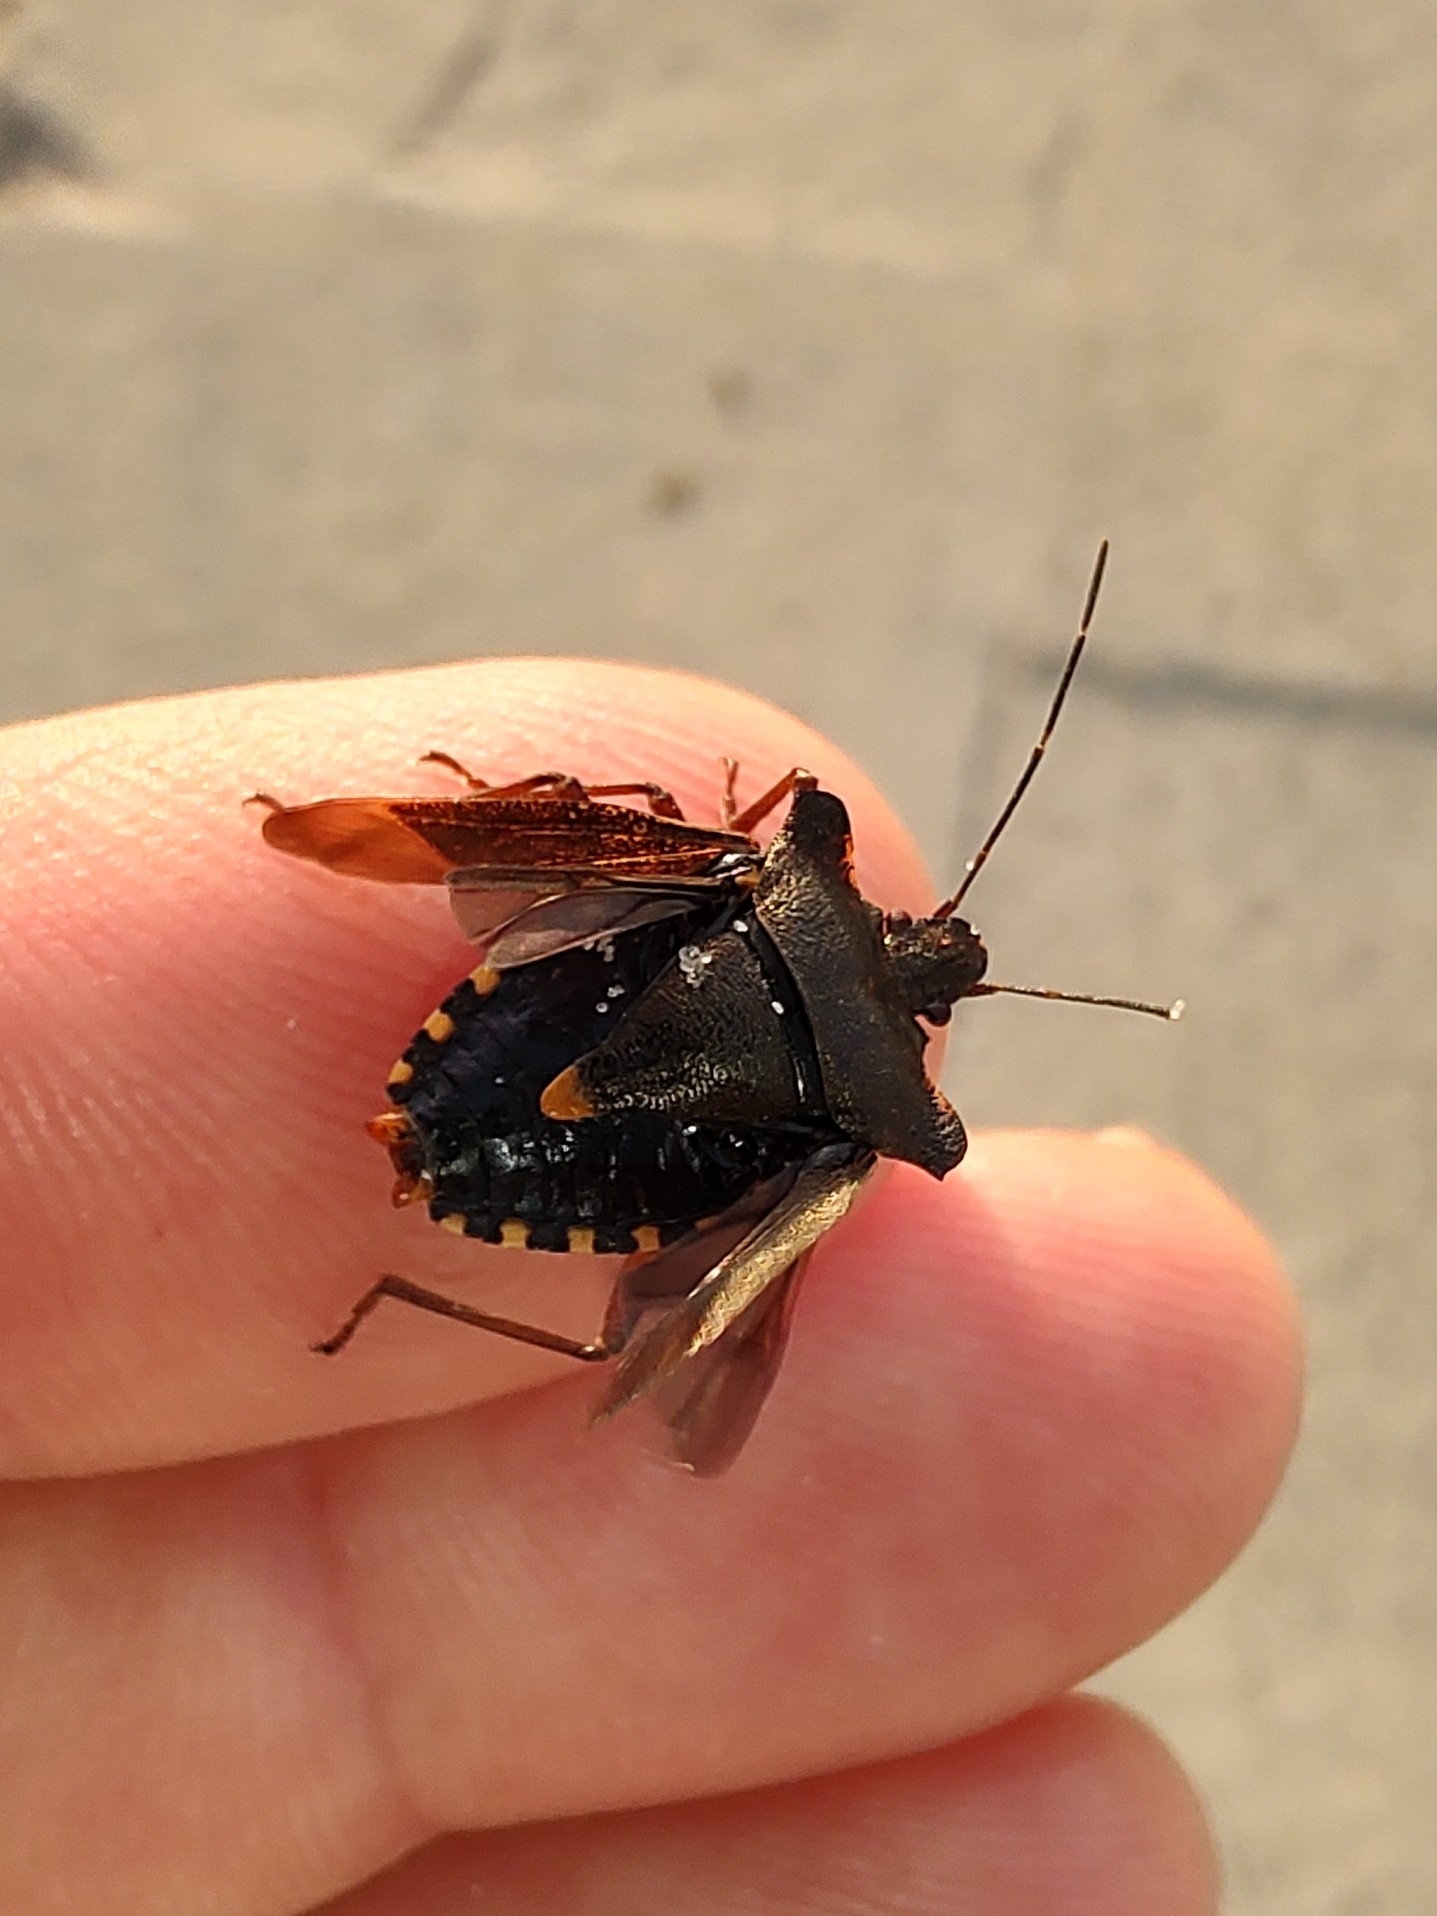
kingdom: Animalia
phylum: Arthropoda
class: Insecta
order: Hemiptera
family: Pentatomidae
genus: Pentatoma
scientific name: Pentatoma rufipes
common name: Forest bug
